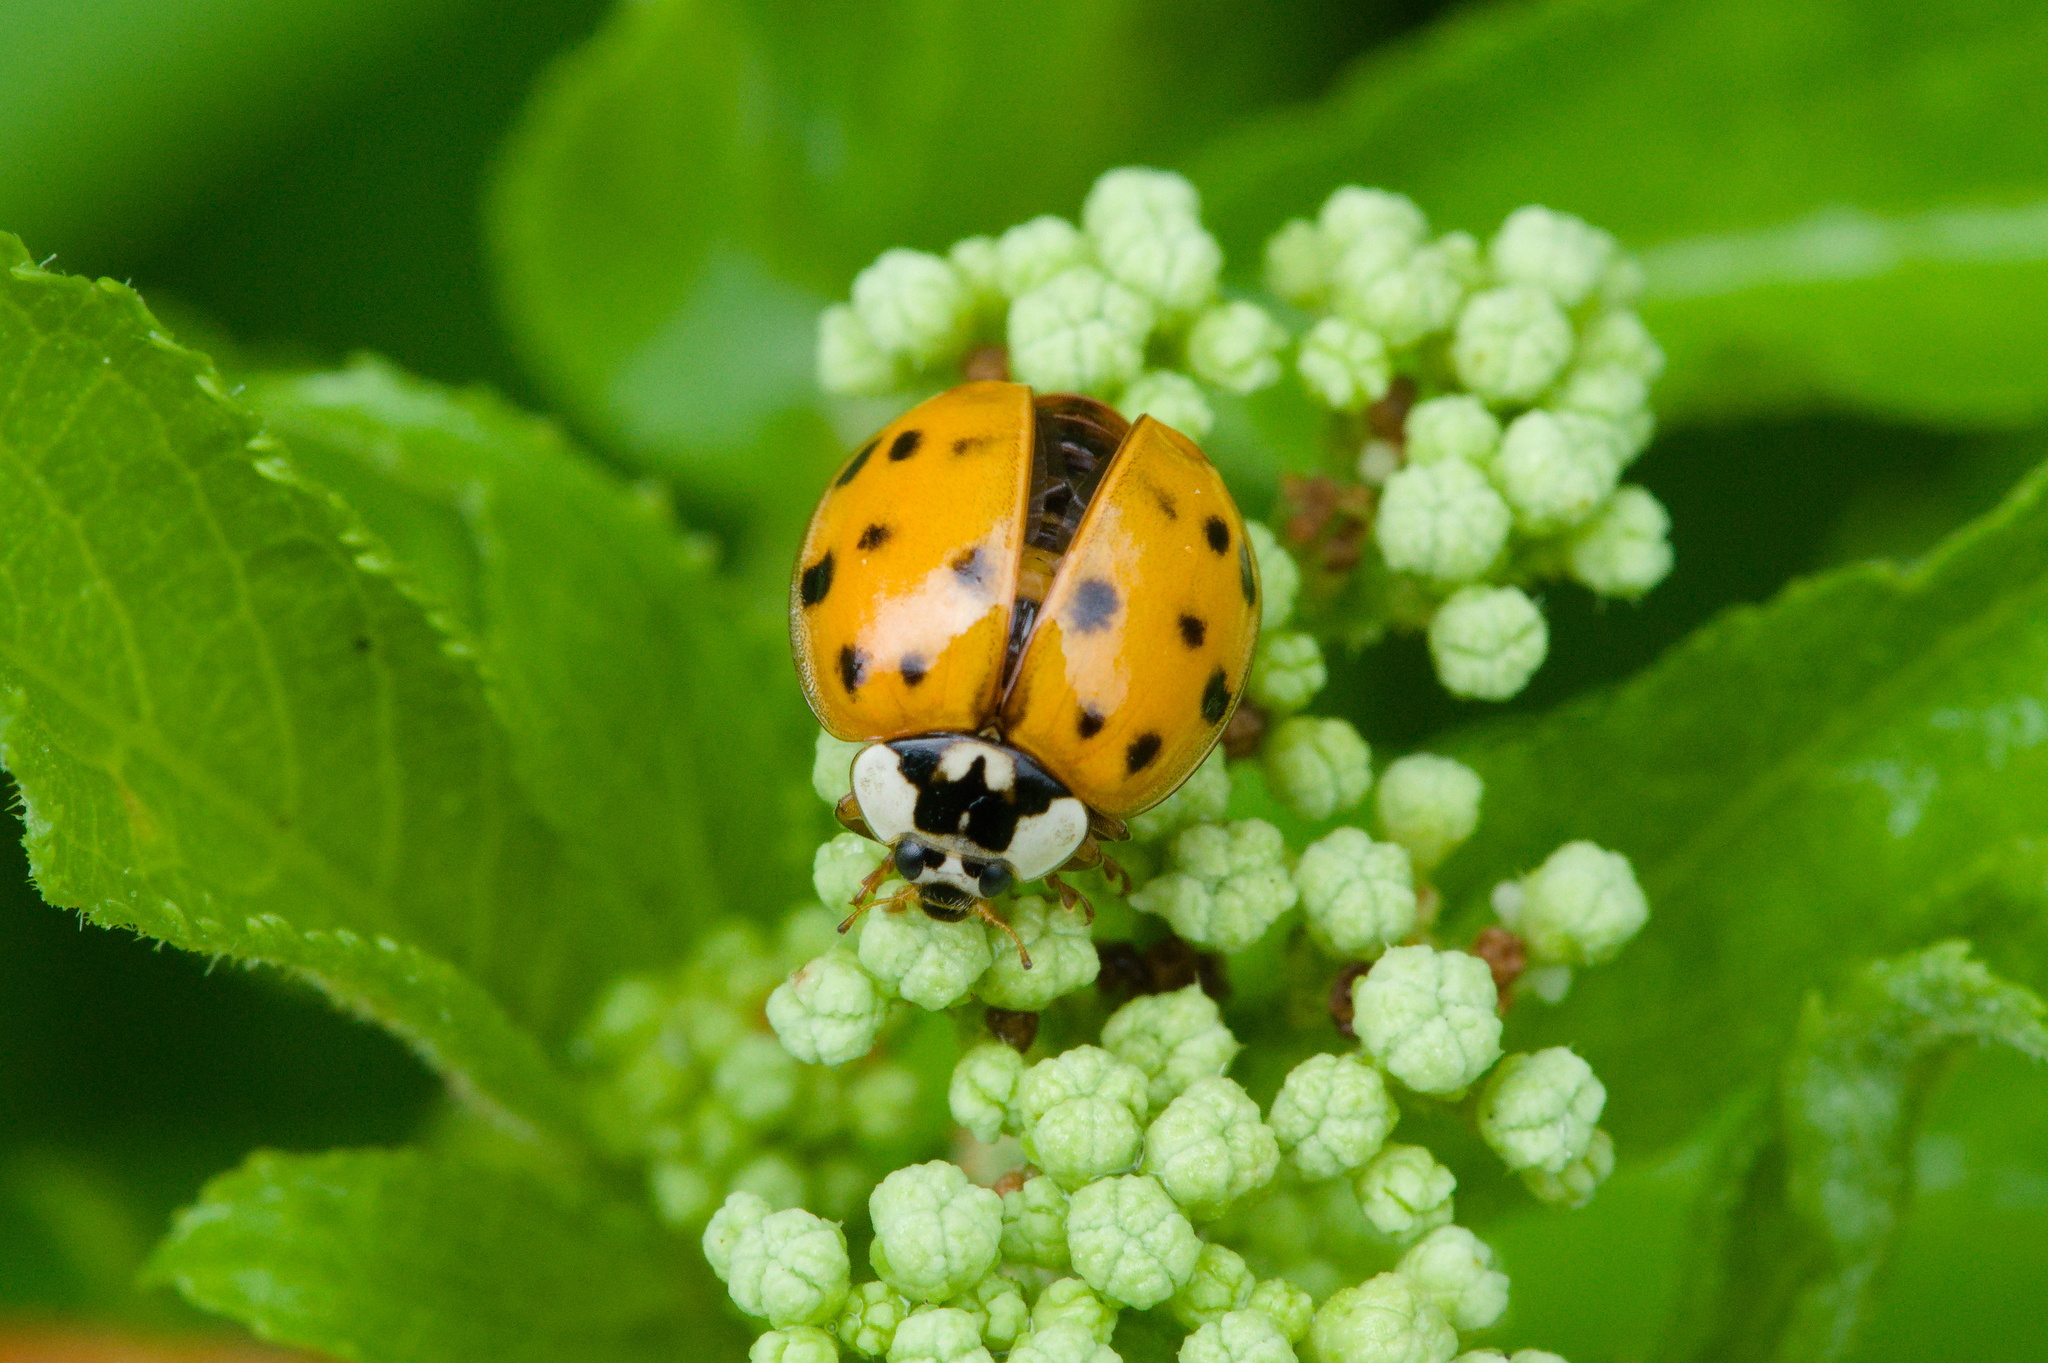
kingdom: Animalia
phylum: Arthropoda
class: Insecta
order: Coleoptera
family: Coccinellidae
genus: Harmonia
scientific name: Harmonia axyridis
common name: Harlequin ladybird
